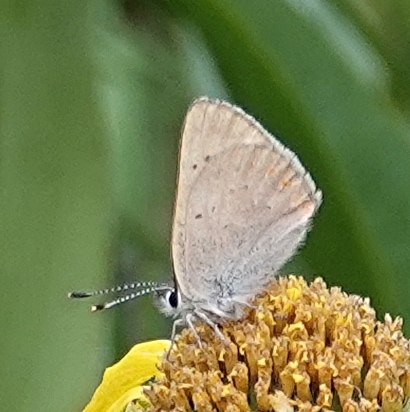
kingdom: Animalia
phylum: Arthropoda
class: Insecta
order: Lepidoptera
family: Lycaenidae
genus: Tharsalea
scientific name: Tharsalea dorcas
